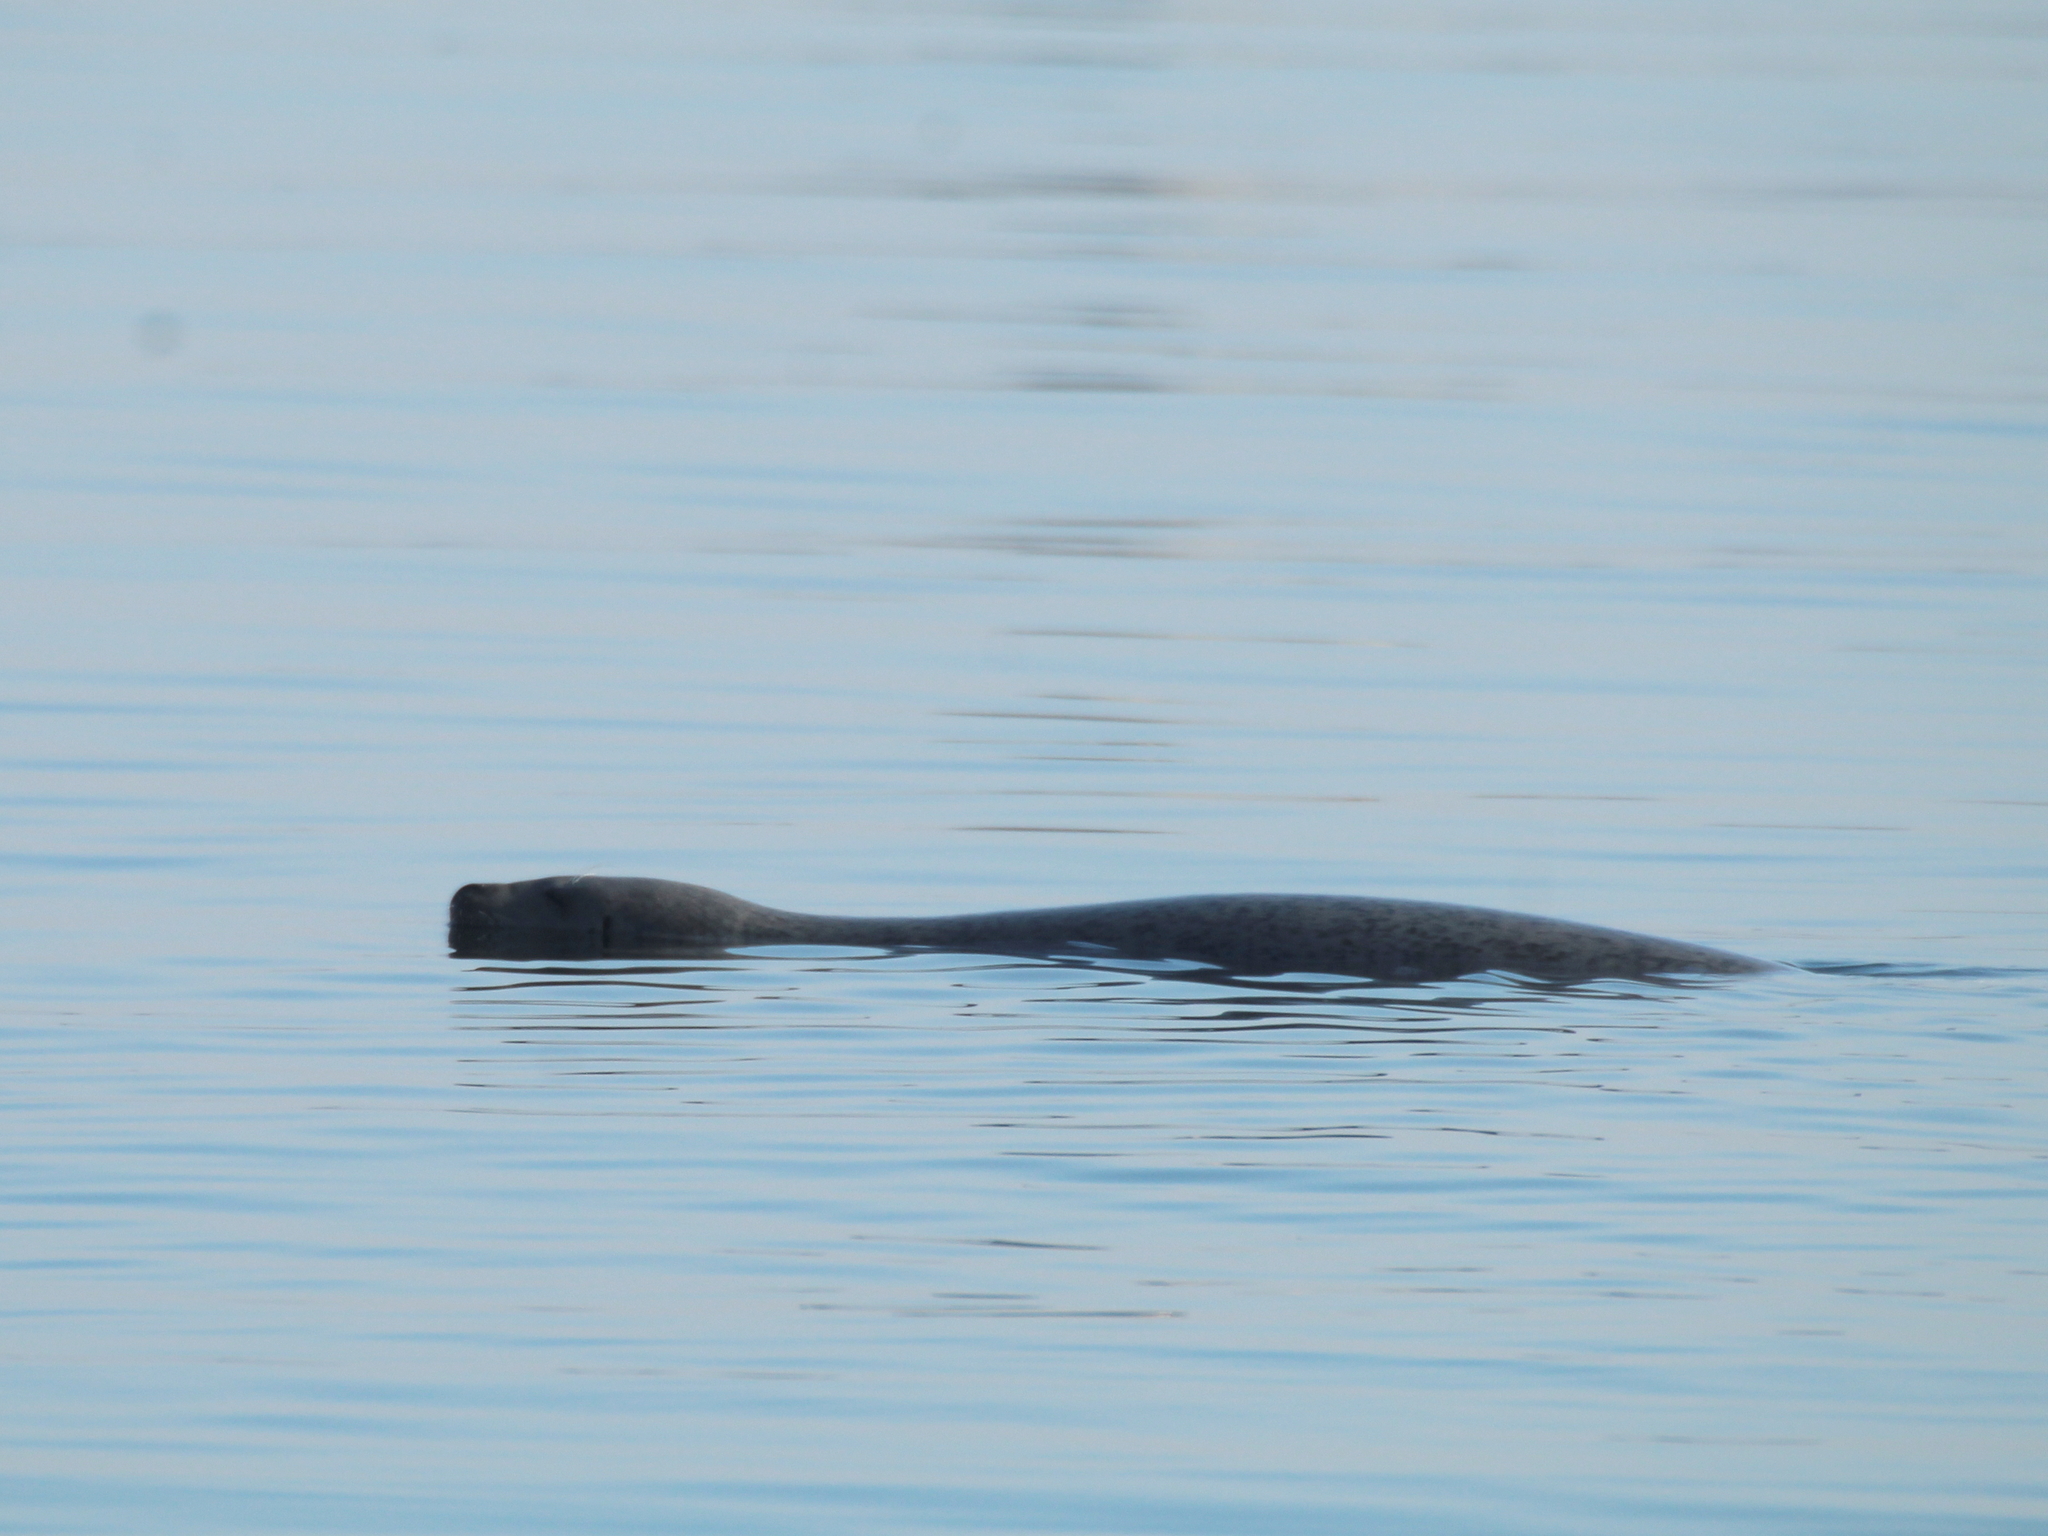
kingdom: Animalia
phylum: Chordata
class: Mammalia
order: Carnivora
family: Phocidae
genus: Phoca
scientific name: Phoca largha
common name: Spotted seal
